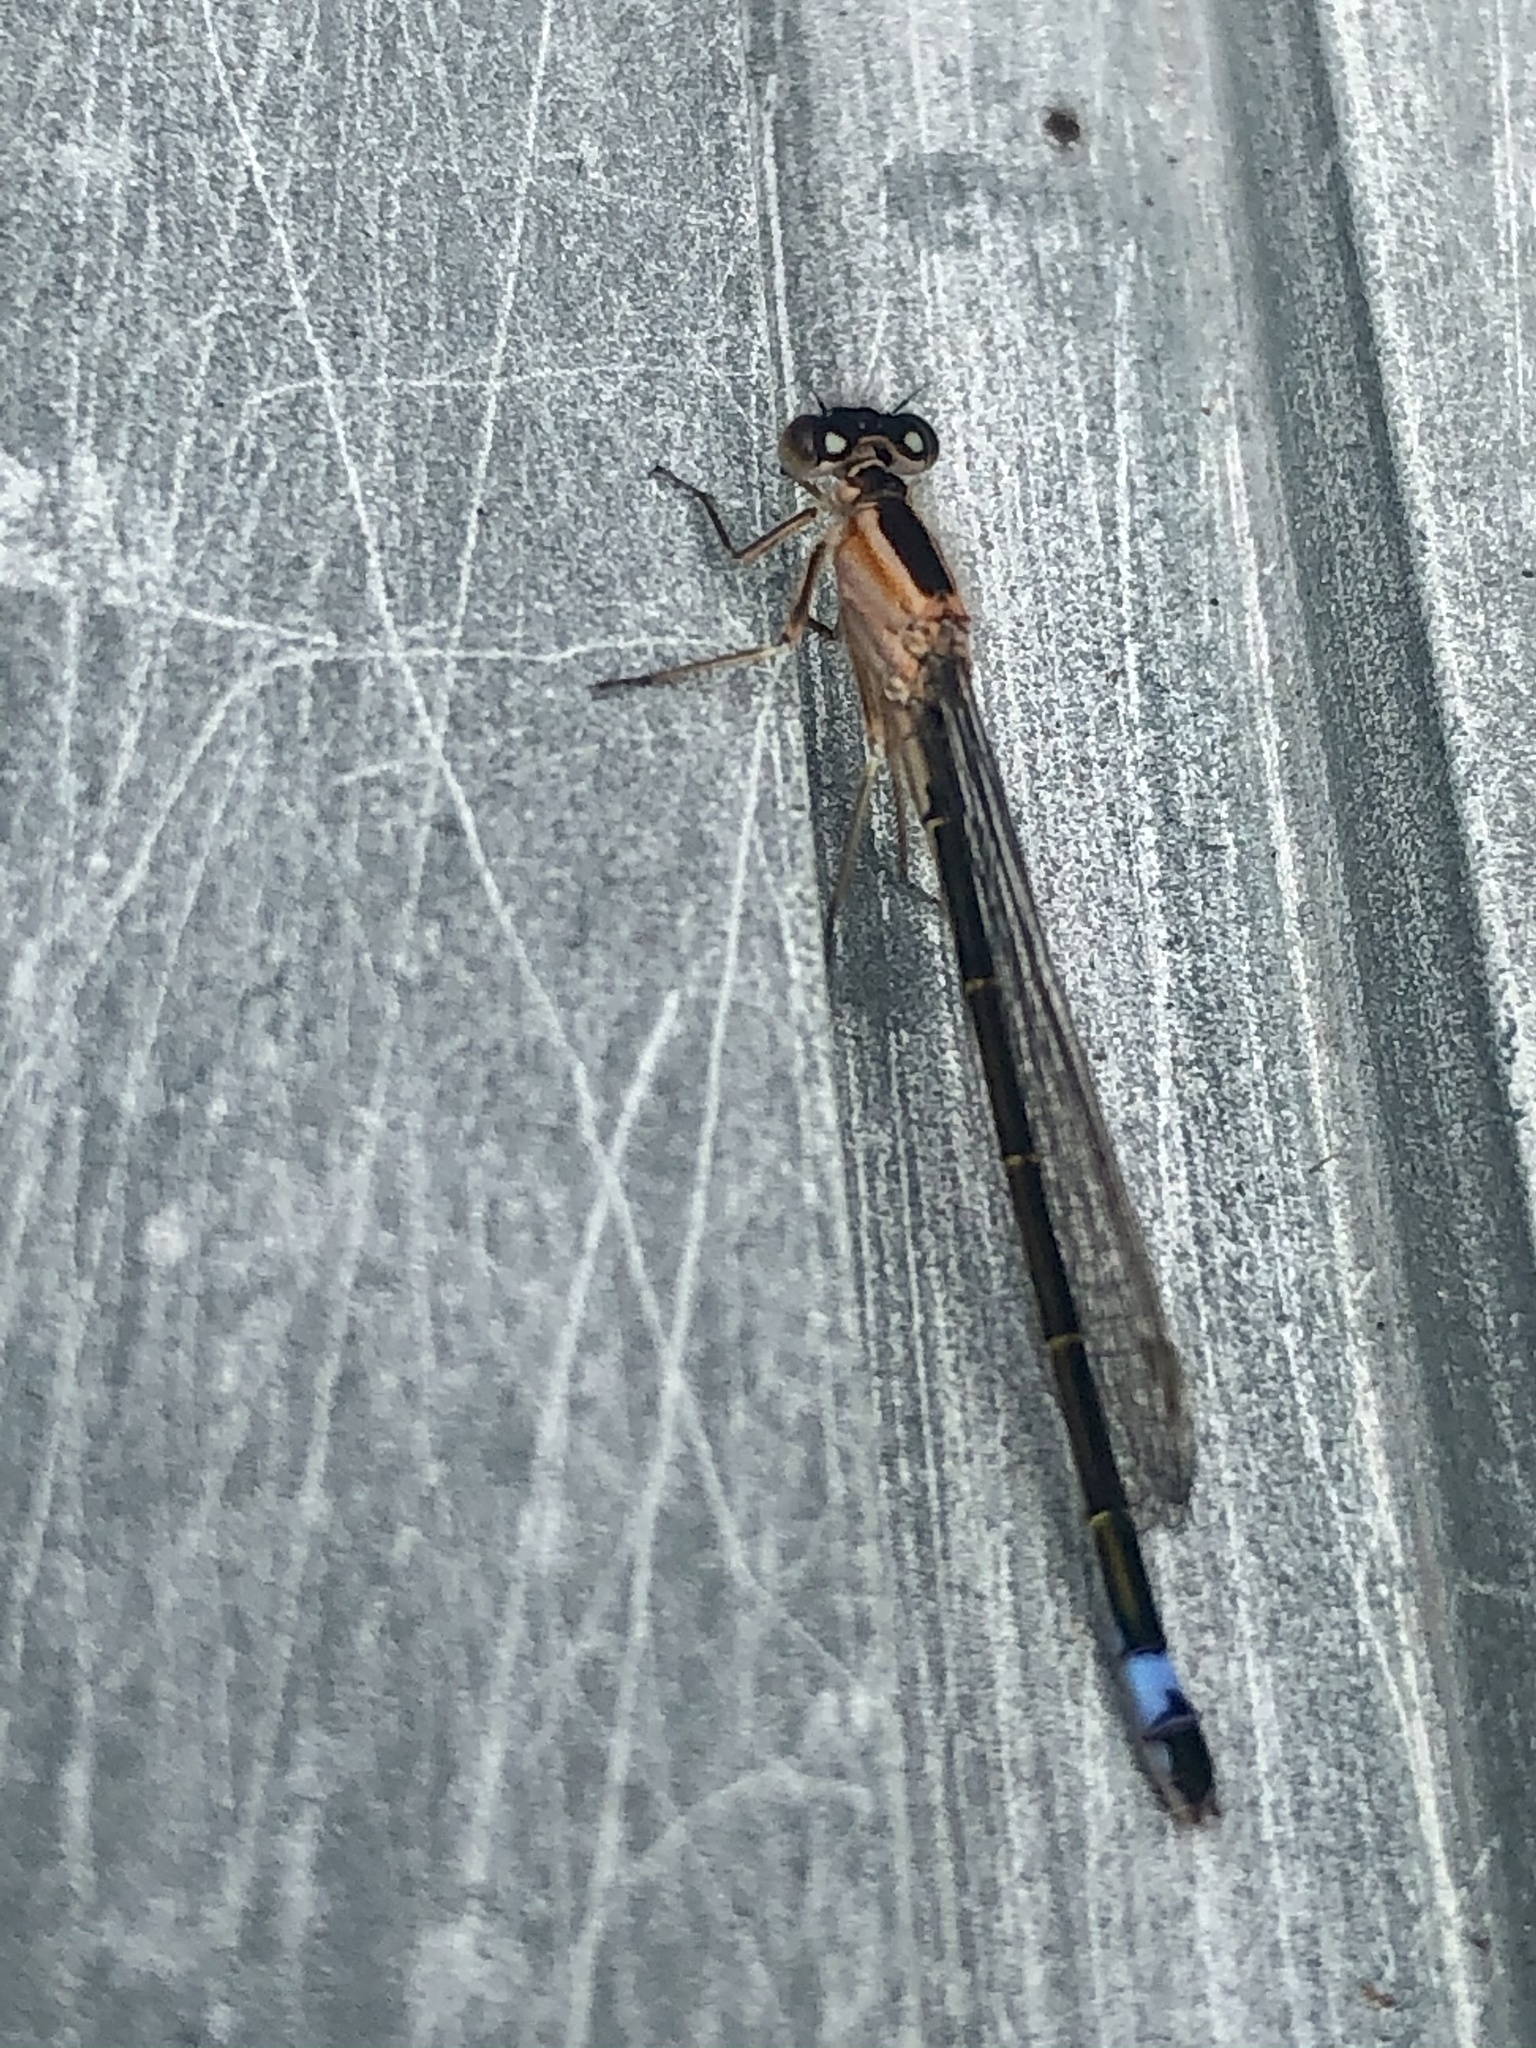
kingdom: Animalia
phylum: Arthropoda
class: Insecta
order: Odonata
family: Coenagrionidae
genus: Ischnura
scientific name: Ischnura elegans
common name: Blue-tailed damselfly
